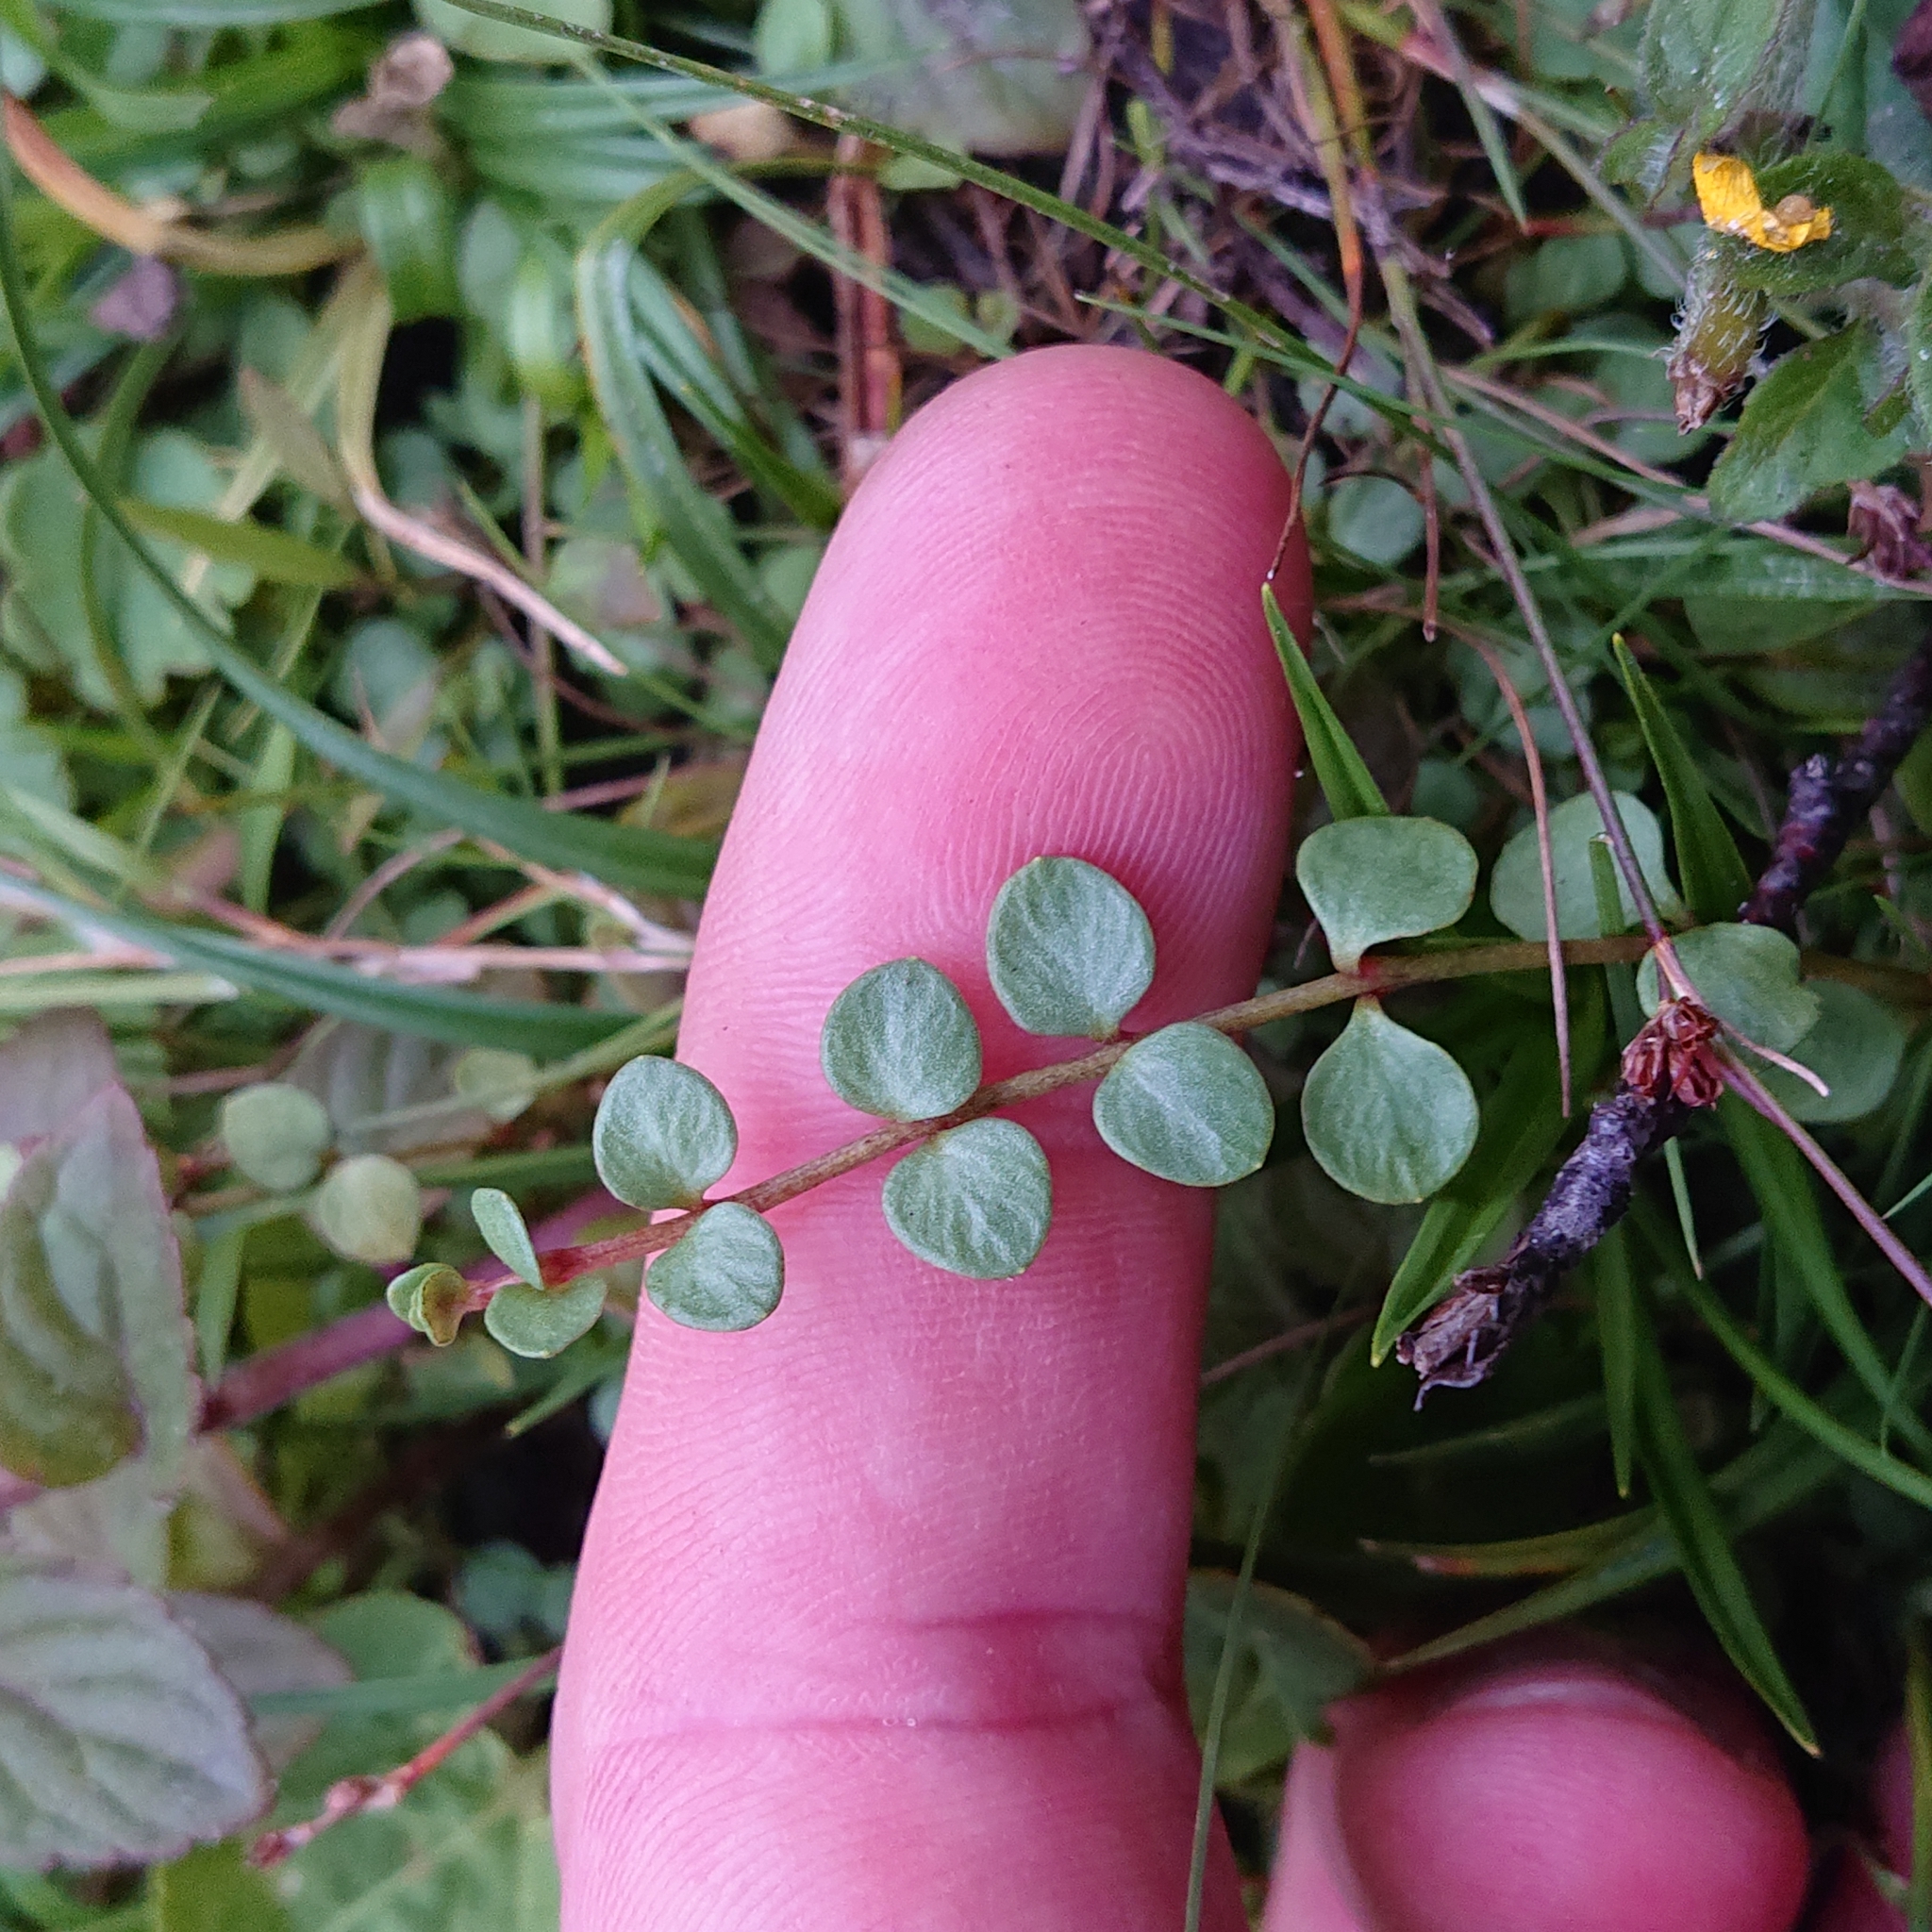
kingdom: Plantae
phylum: Tracheophyta
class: Magnoliopsida
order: Ericales
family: Primulaceae
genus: Lysimachia
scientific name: Lysimachia tenella
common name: European bog pimpernel
